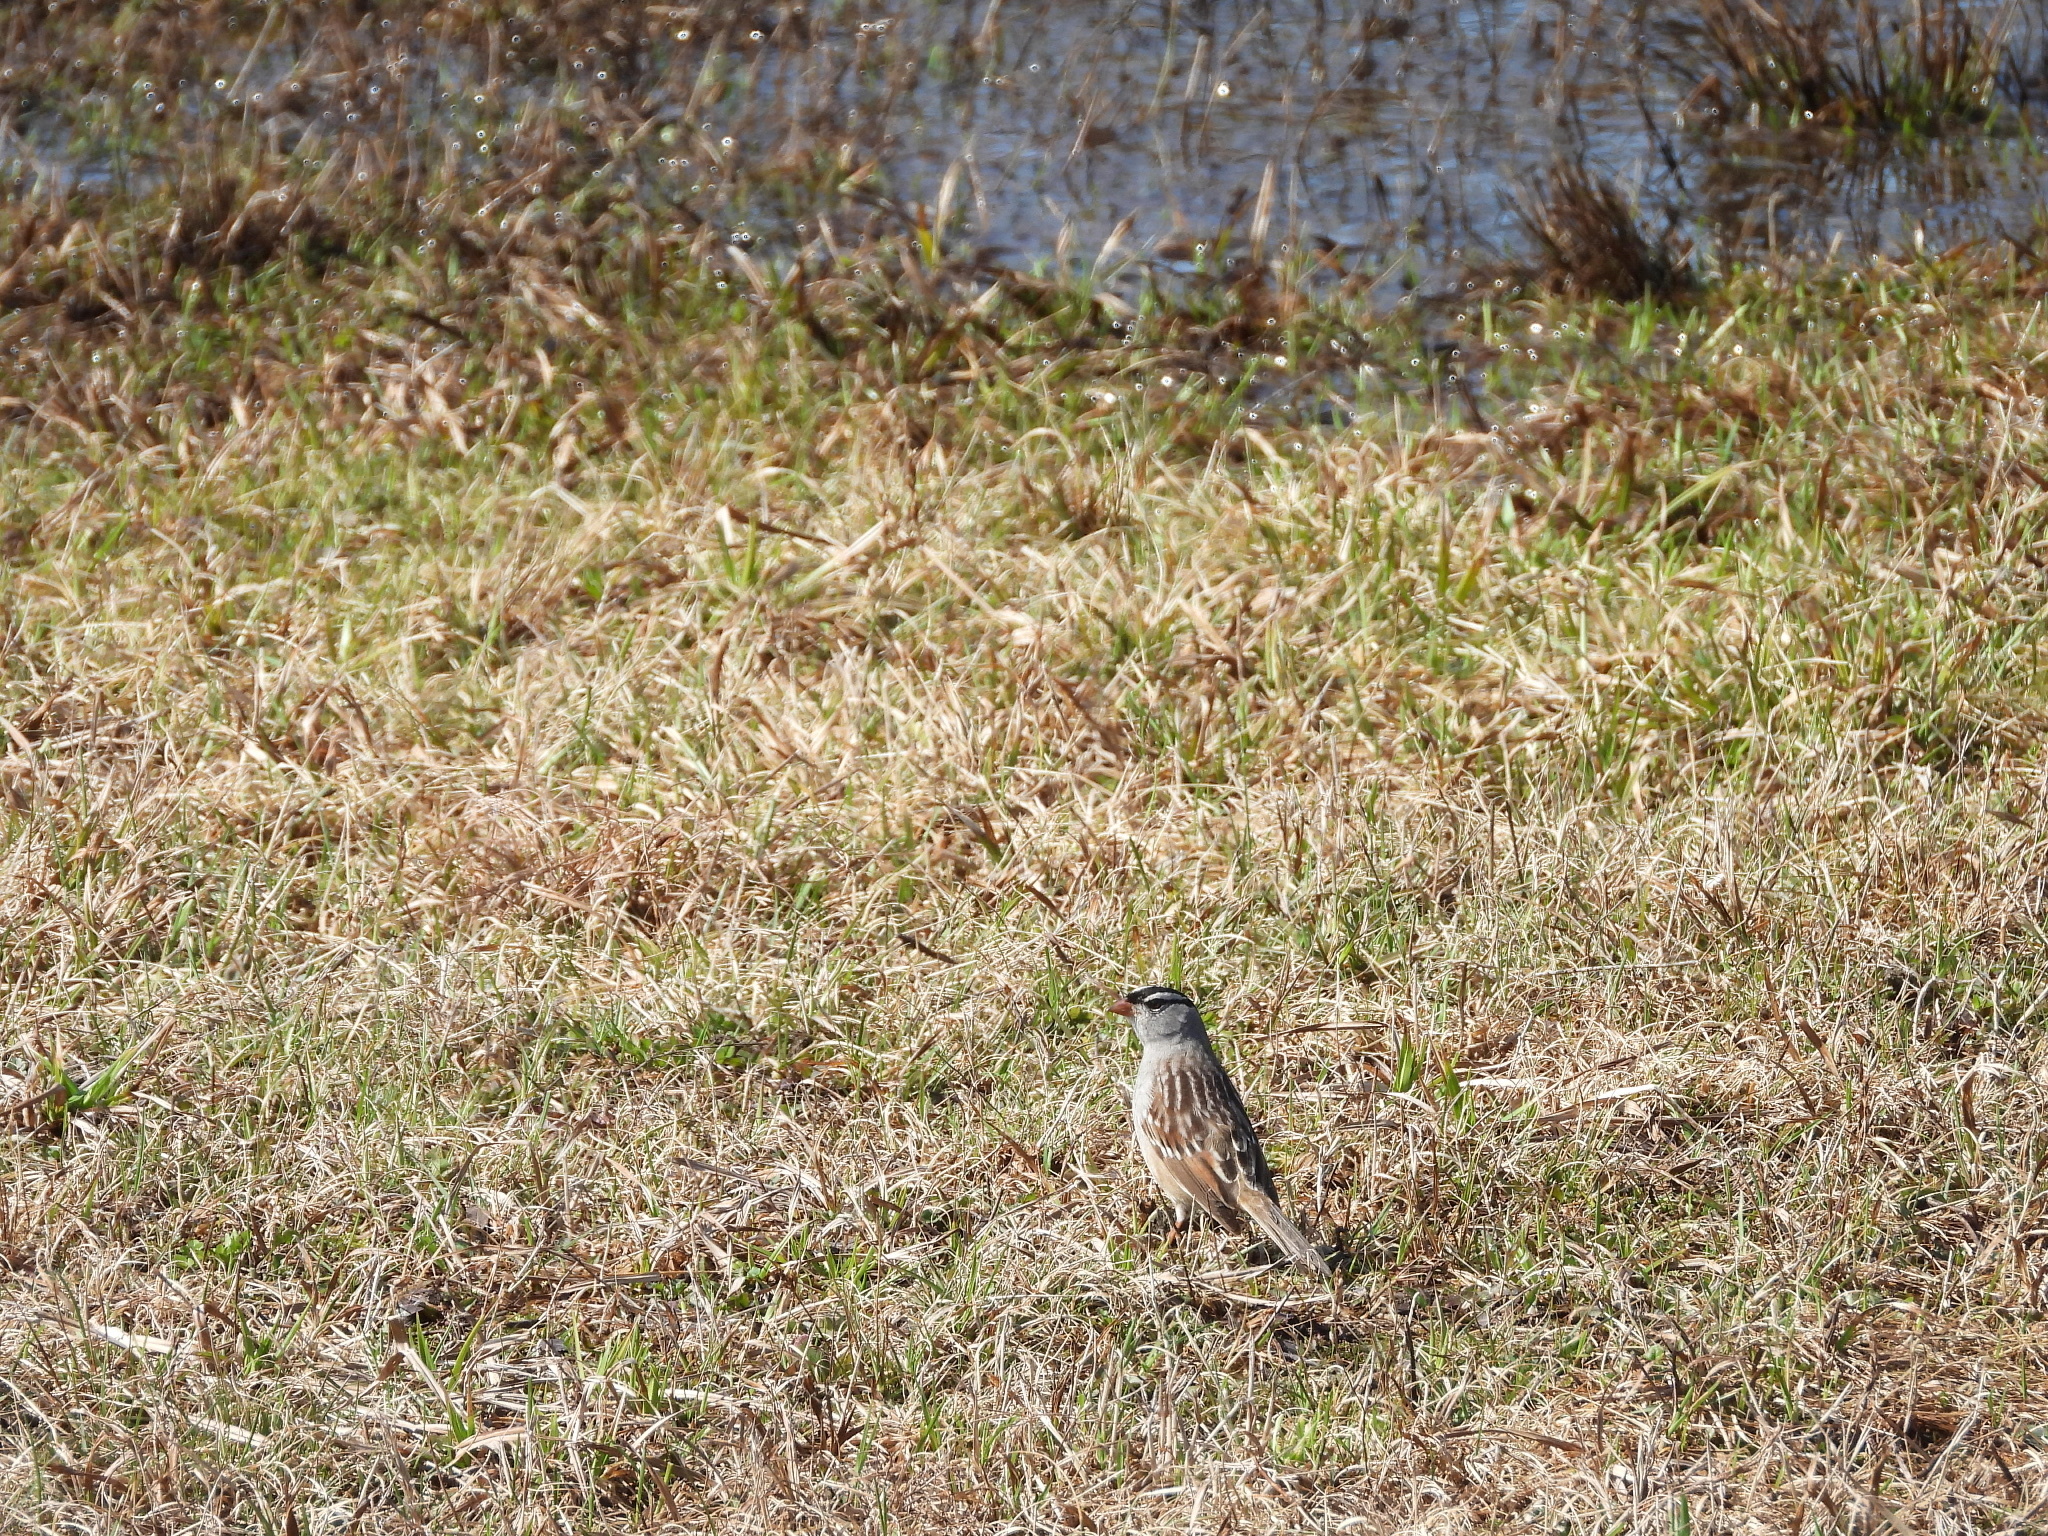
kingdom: Animalia
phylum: Chordata
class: Aves
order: Passeriformes
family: Passerellidae
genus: Zonotrichia
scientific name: Zonotrichia leucophrys
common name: White-crowned sparrow
